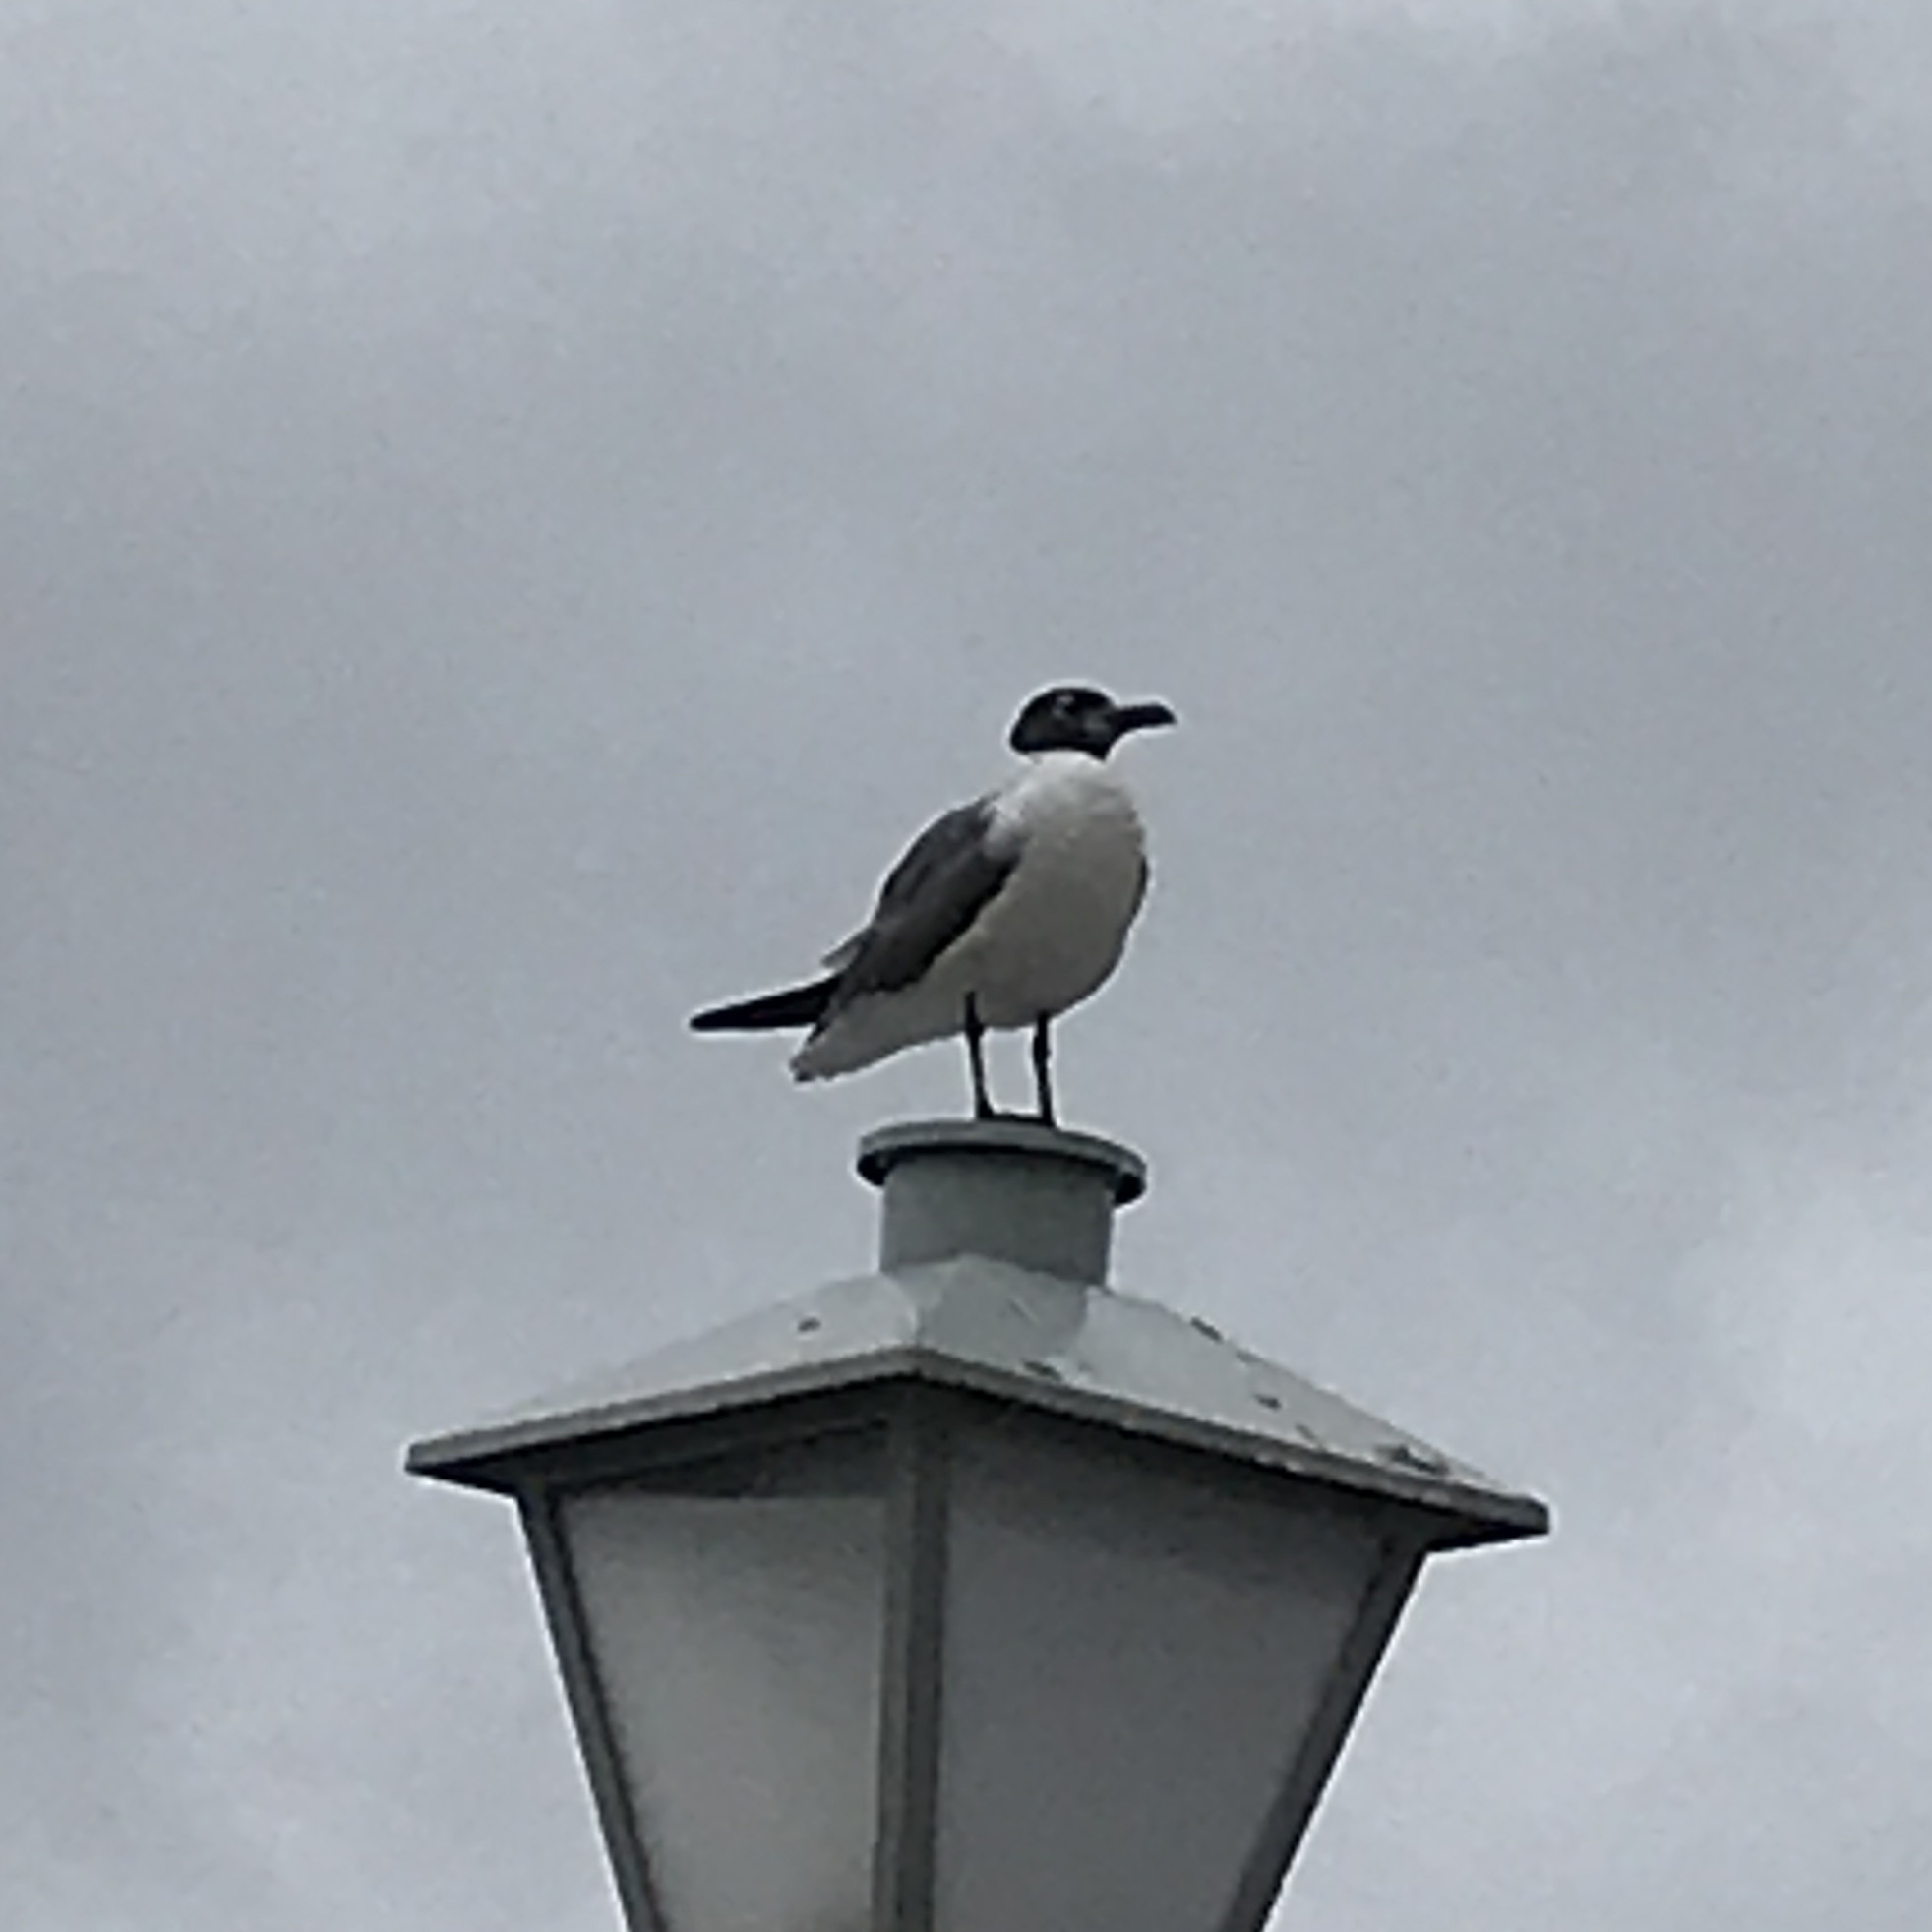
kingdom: Animalia
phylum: Chordata
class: Aves
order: Charadriiformes
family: Laridae
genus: Leucophaeus
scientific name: Leucophaeus atricilla
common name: Laughing gull
